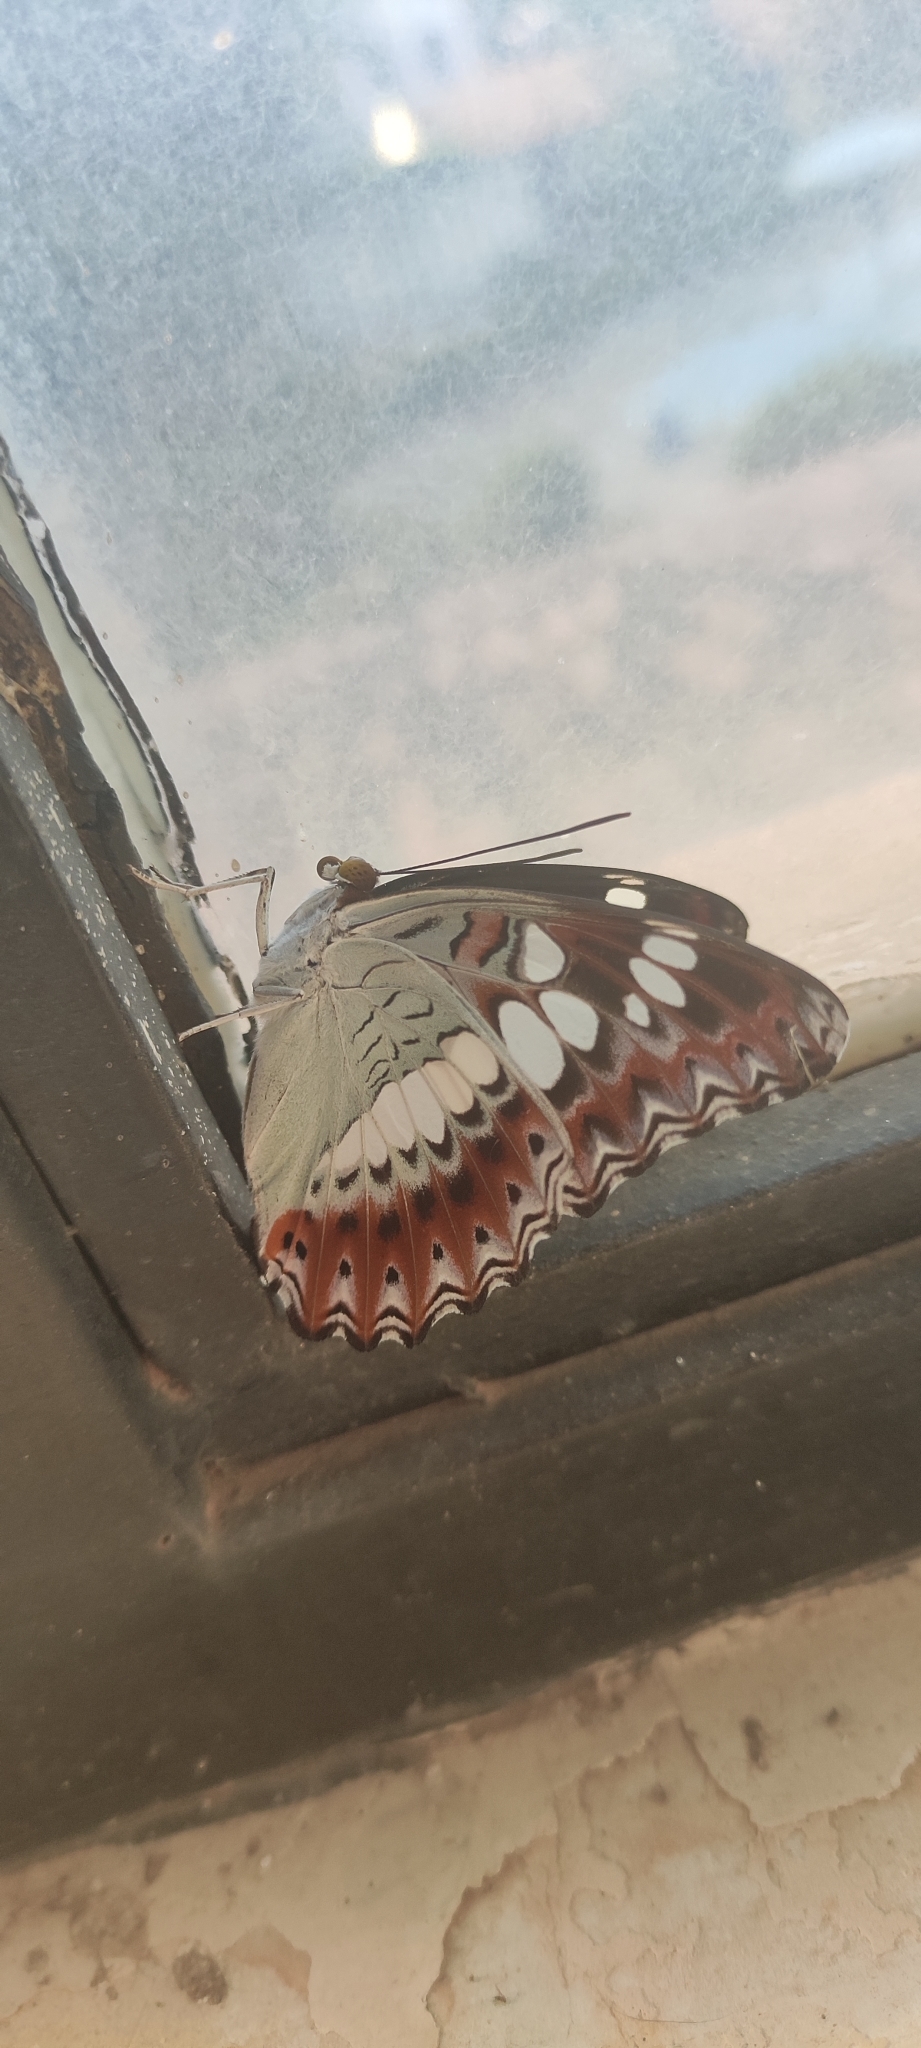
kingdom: Animalia
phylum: Arthropoda
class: Insecta
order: Lepidoptera
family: Nymphalidae
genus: Limenitis
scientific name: Limenitis Moduza procris
